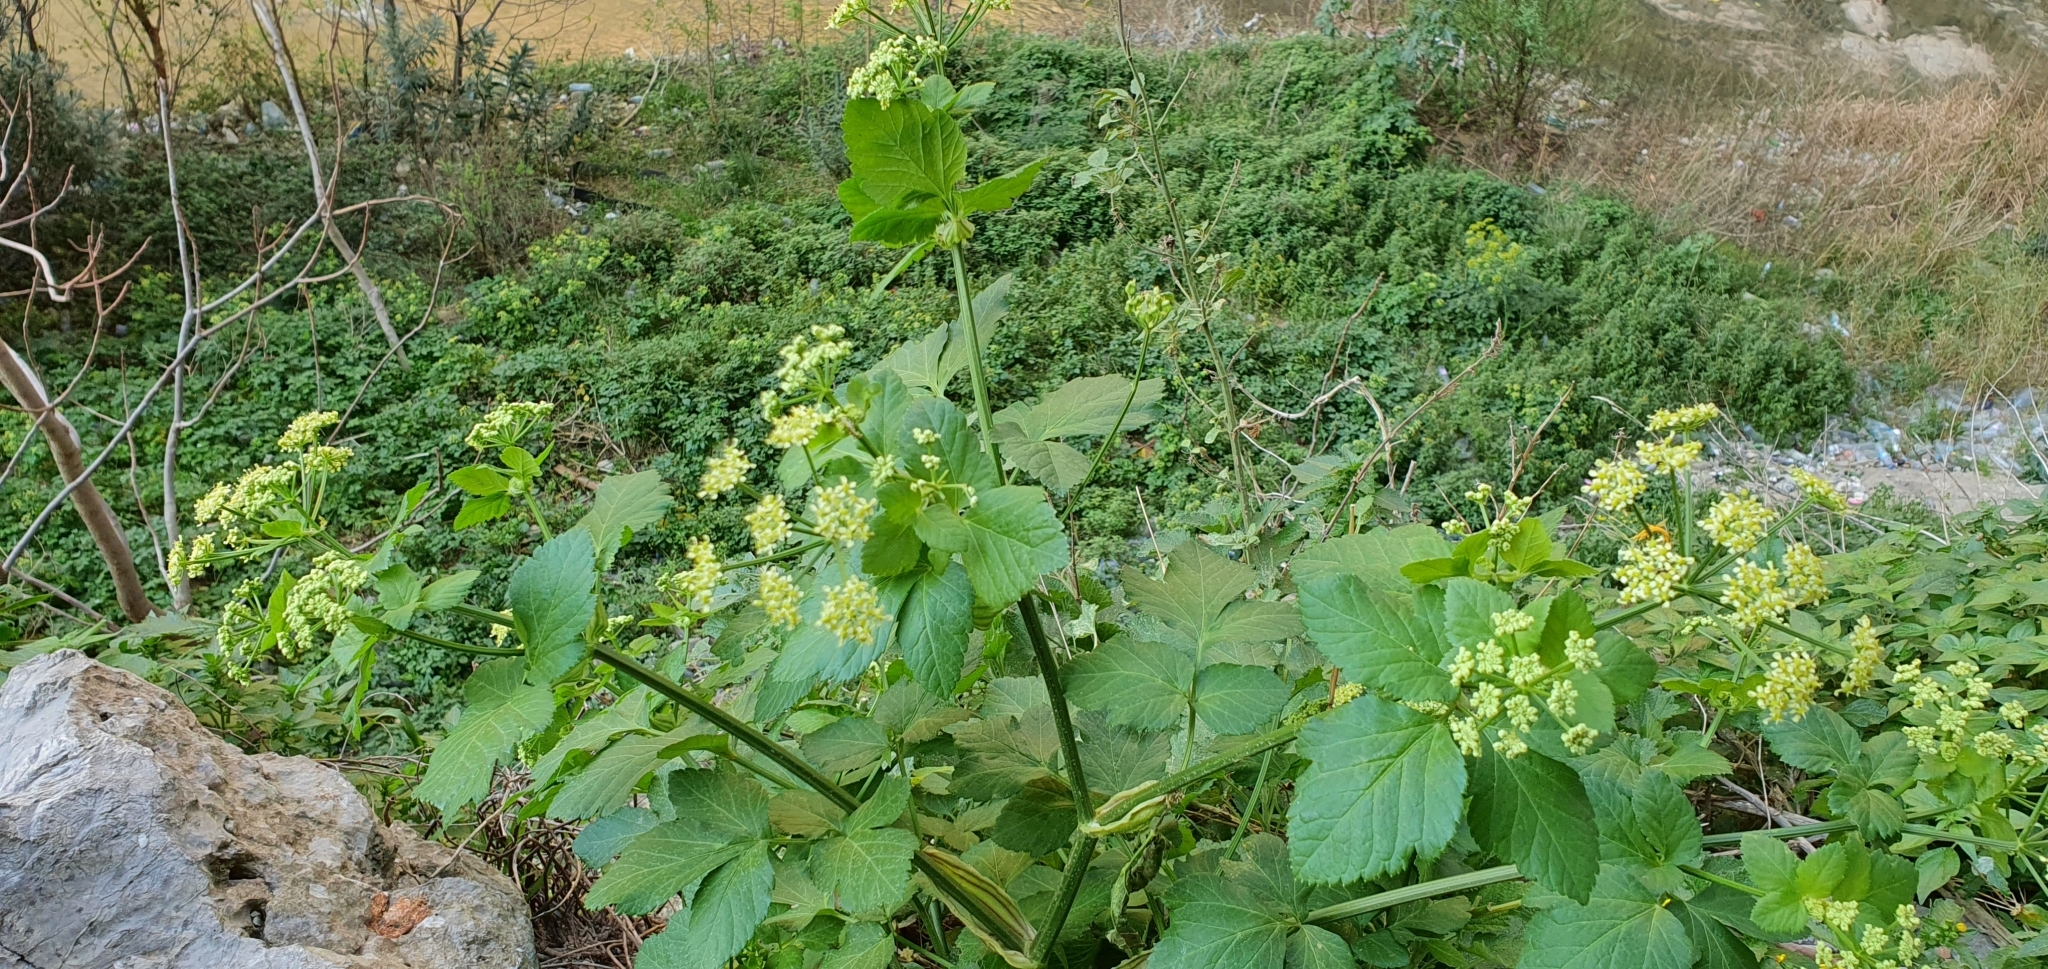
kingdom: Plantae
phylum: Tracheophyta
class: Magnoliopsida
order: Apiales
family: Apiaceae
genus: Smyrnium
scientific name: Smyrnium olusatrum
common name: Alexanders
